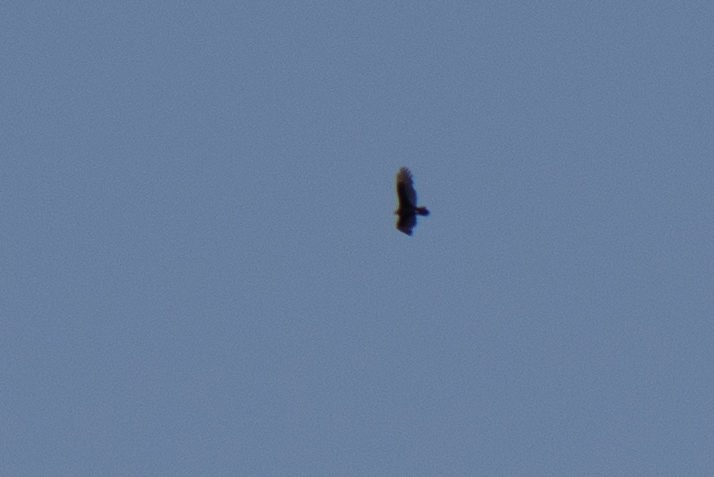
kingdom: Animalia
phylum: Chordata
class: Aves
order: Accipitriformes
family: Cathartidae
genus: Cathartes
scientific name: Cathartes aura
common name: Turkey vulture
